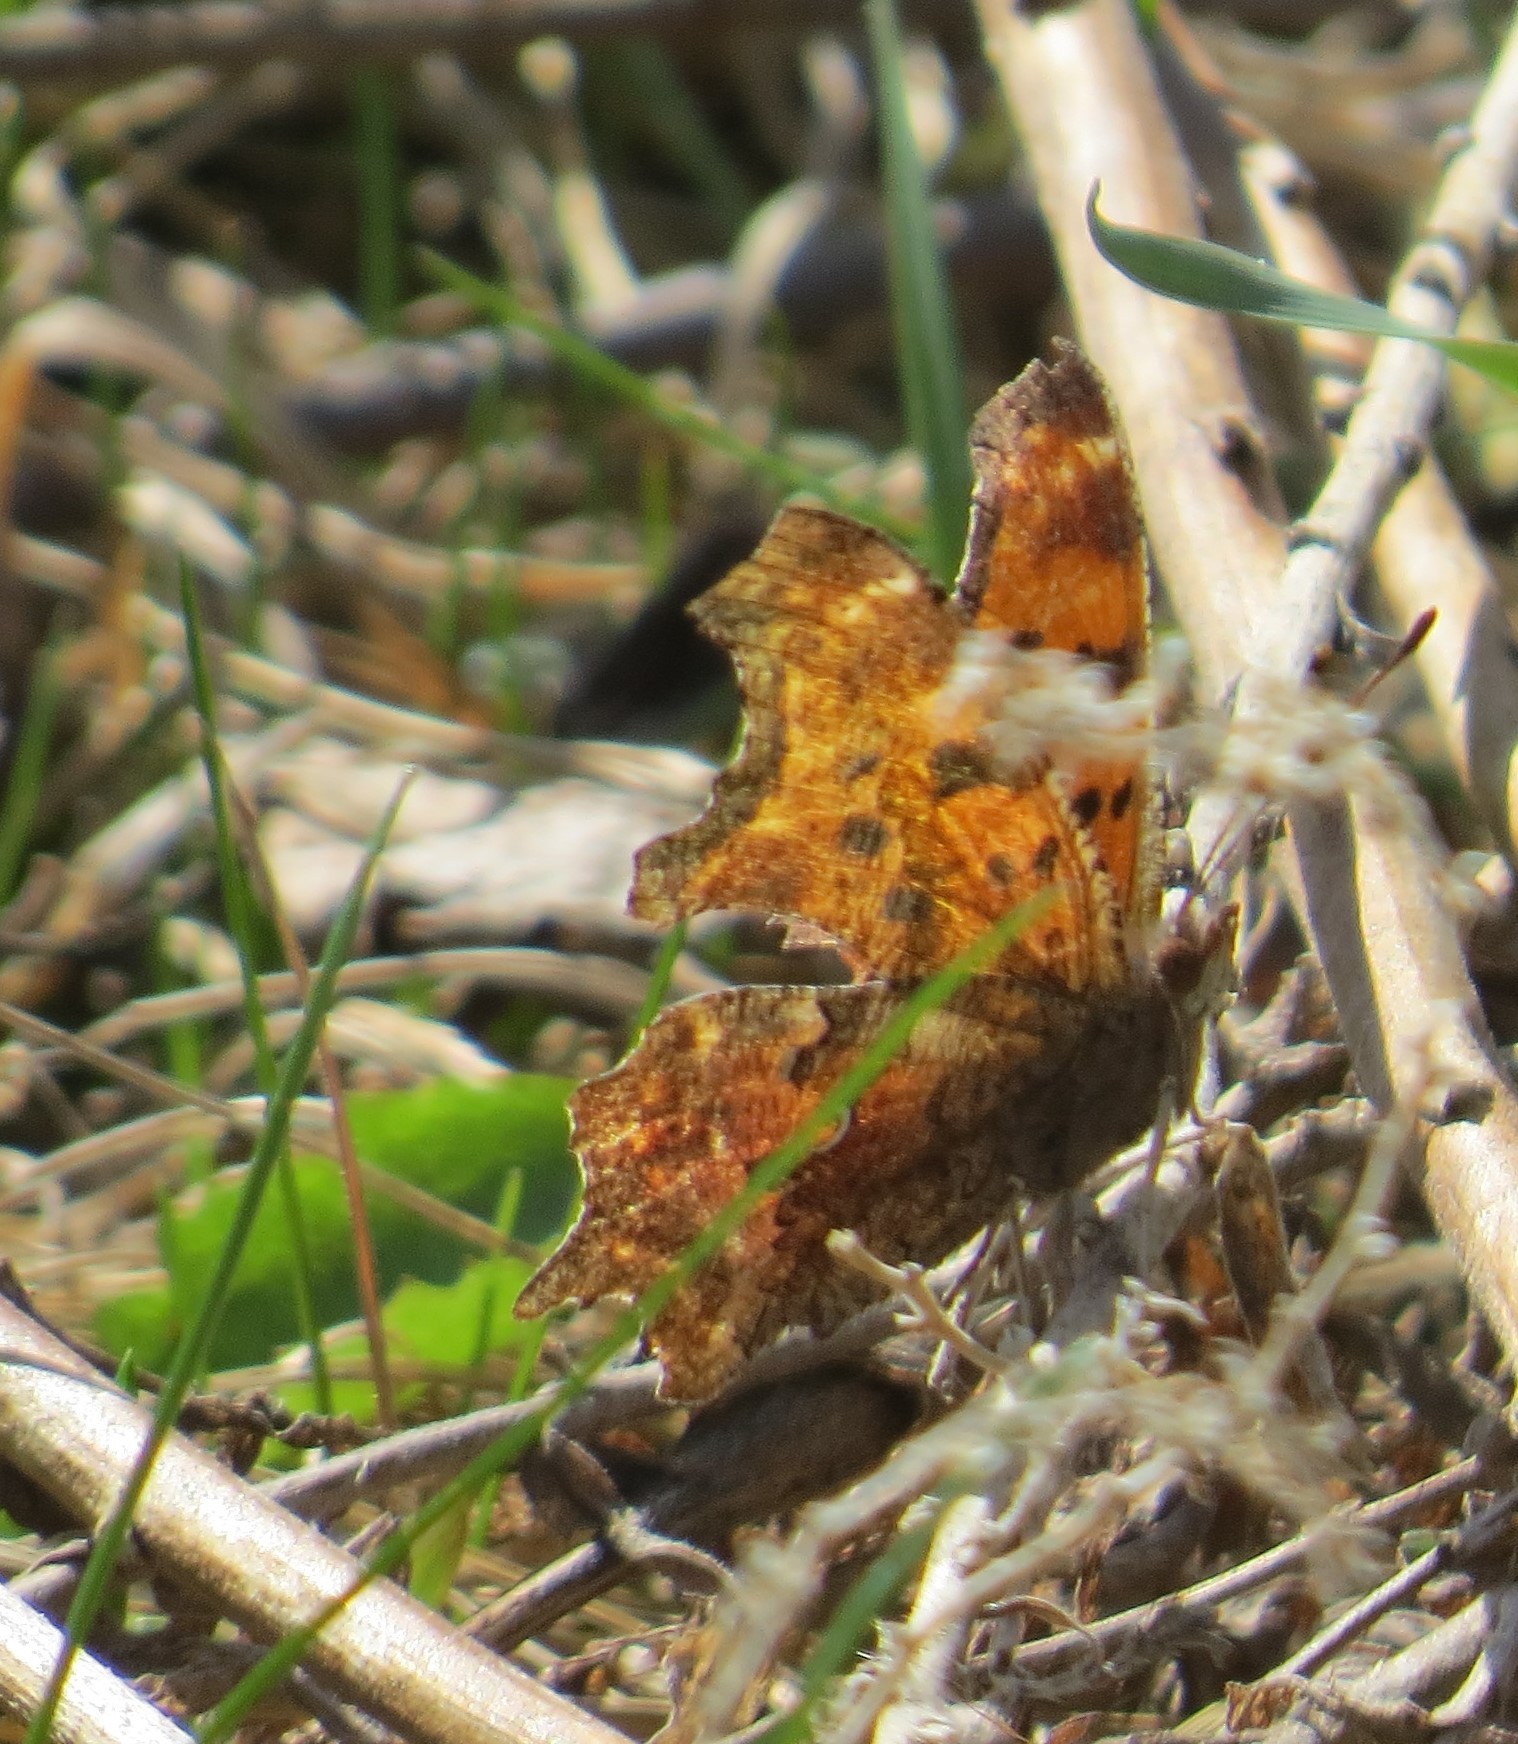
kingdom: Animalia
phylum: Arthropoda
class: Insecta
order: Lepidoptera
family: Nymphalidae
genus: Polygonia
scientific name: Polygonia comma
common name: Eastern comma
